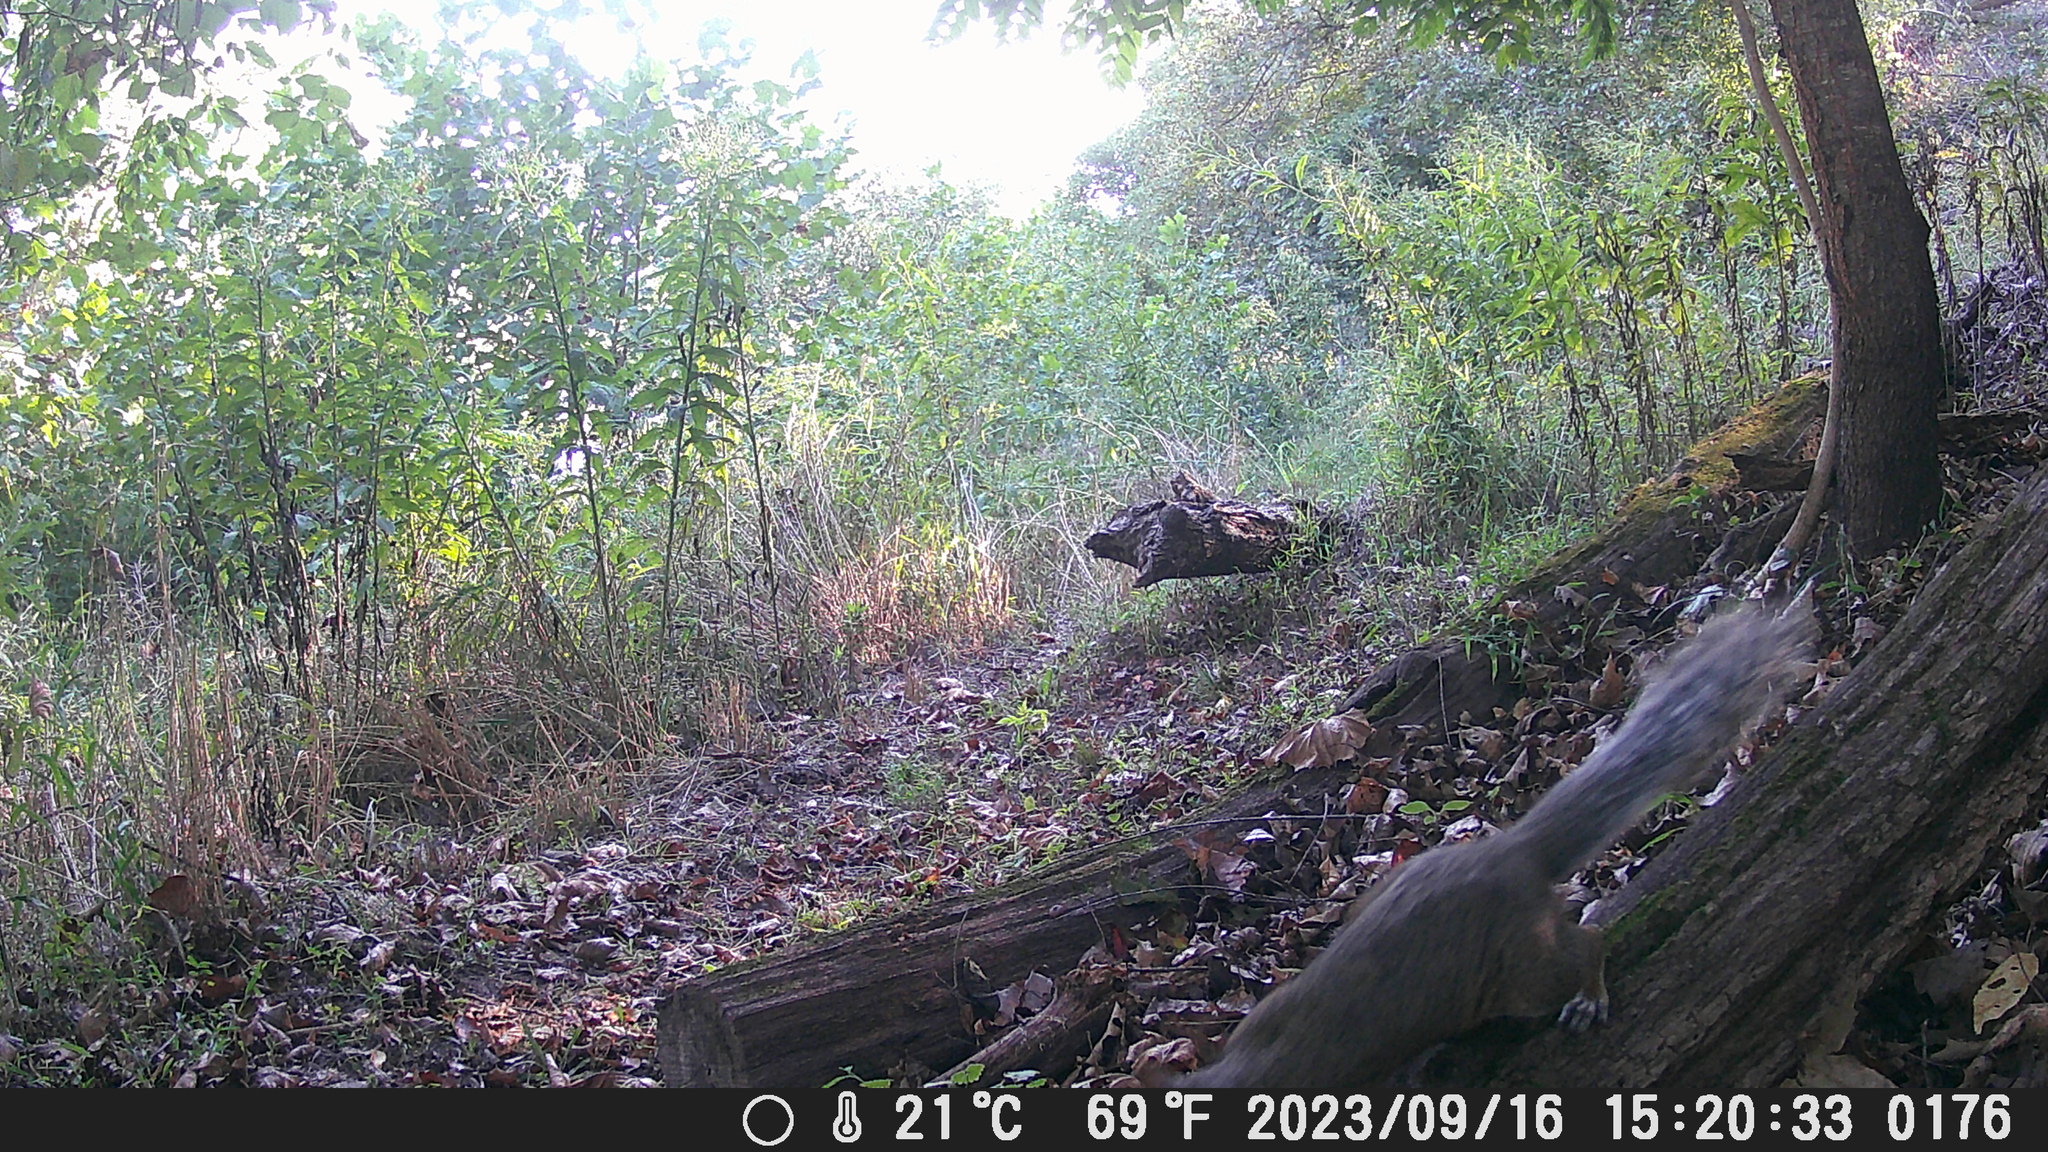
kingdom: Animalia
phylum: Chordata
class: Mammalia
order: Rodentia
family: Sciuridae
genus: Sciurus
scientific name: Sciurus carolinensis
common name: Eastern gray squirrel
